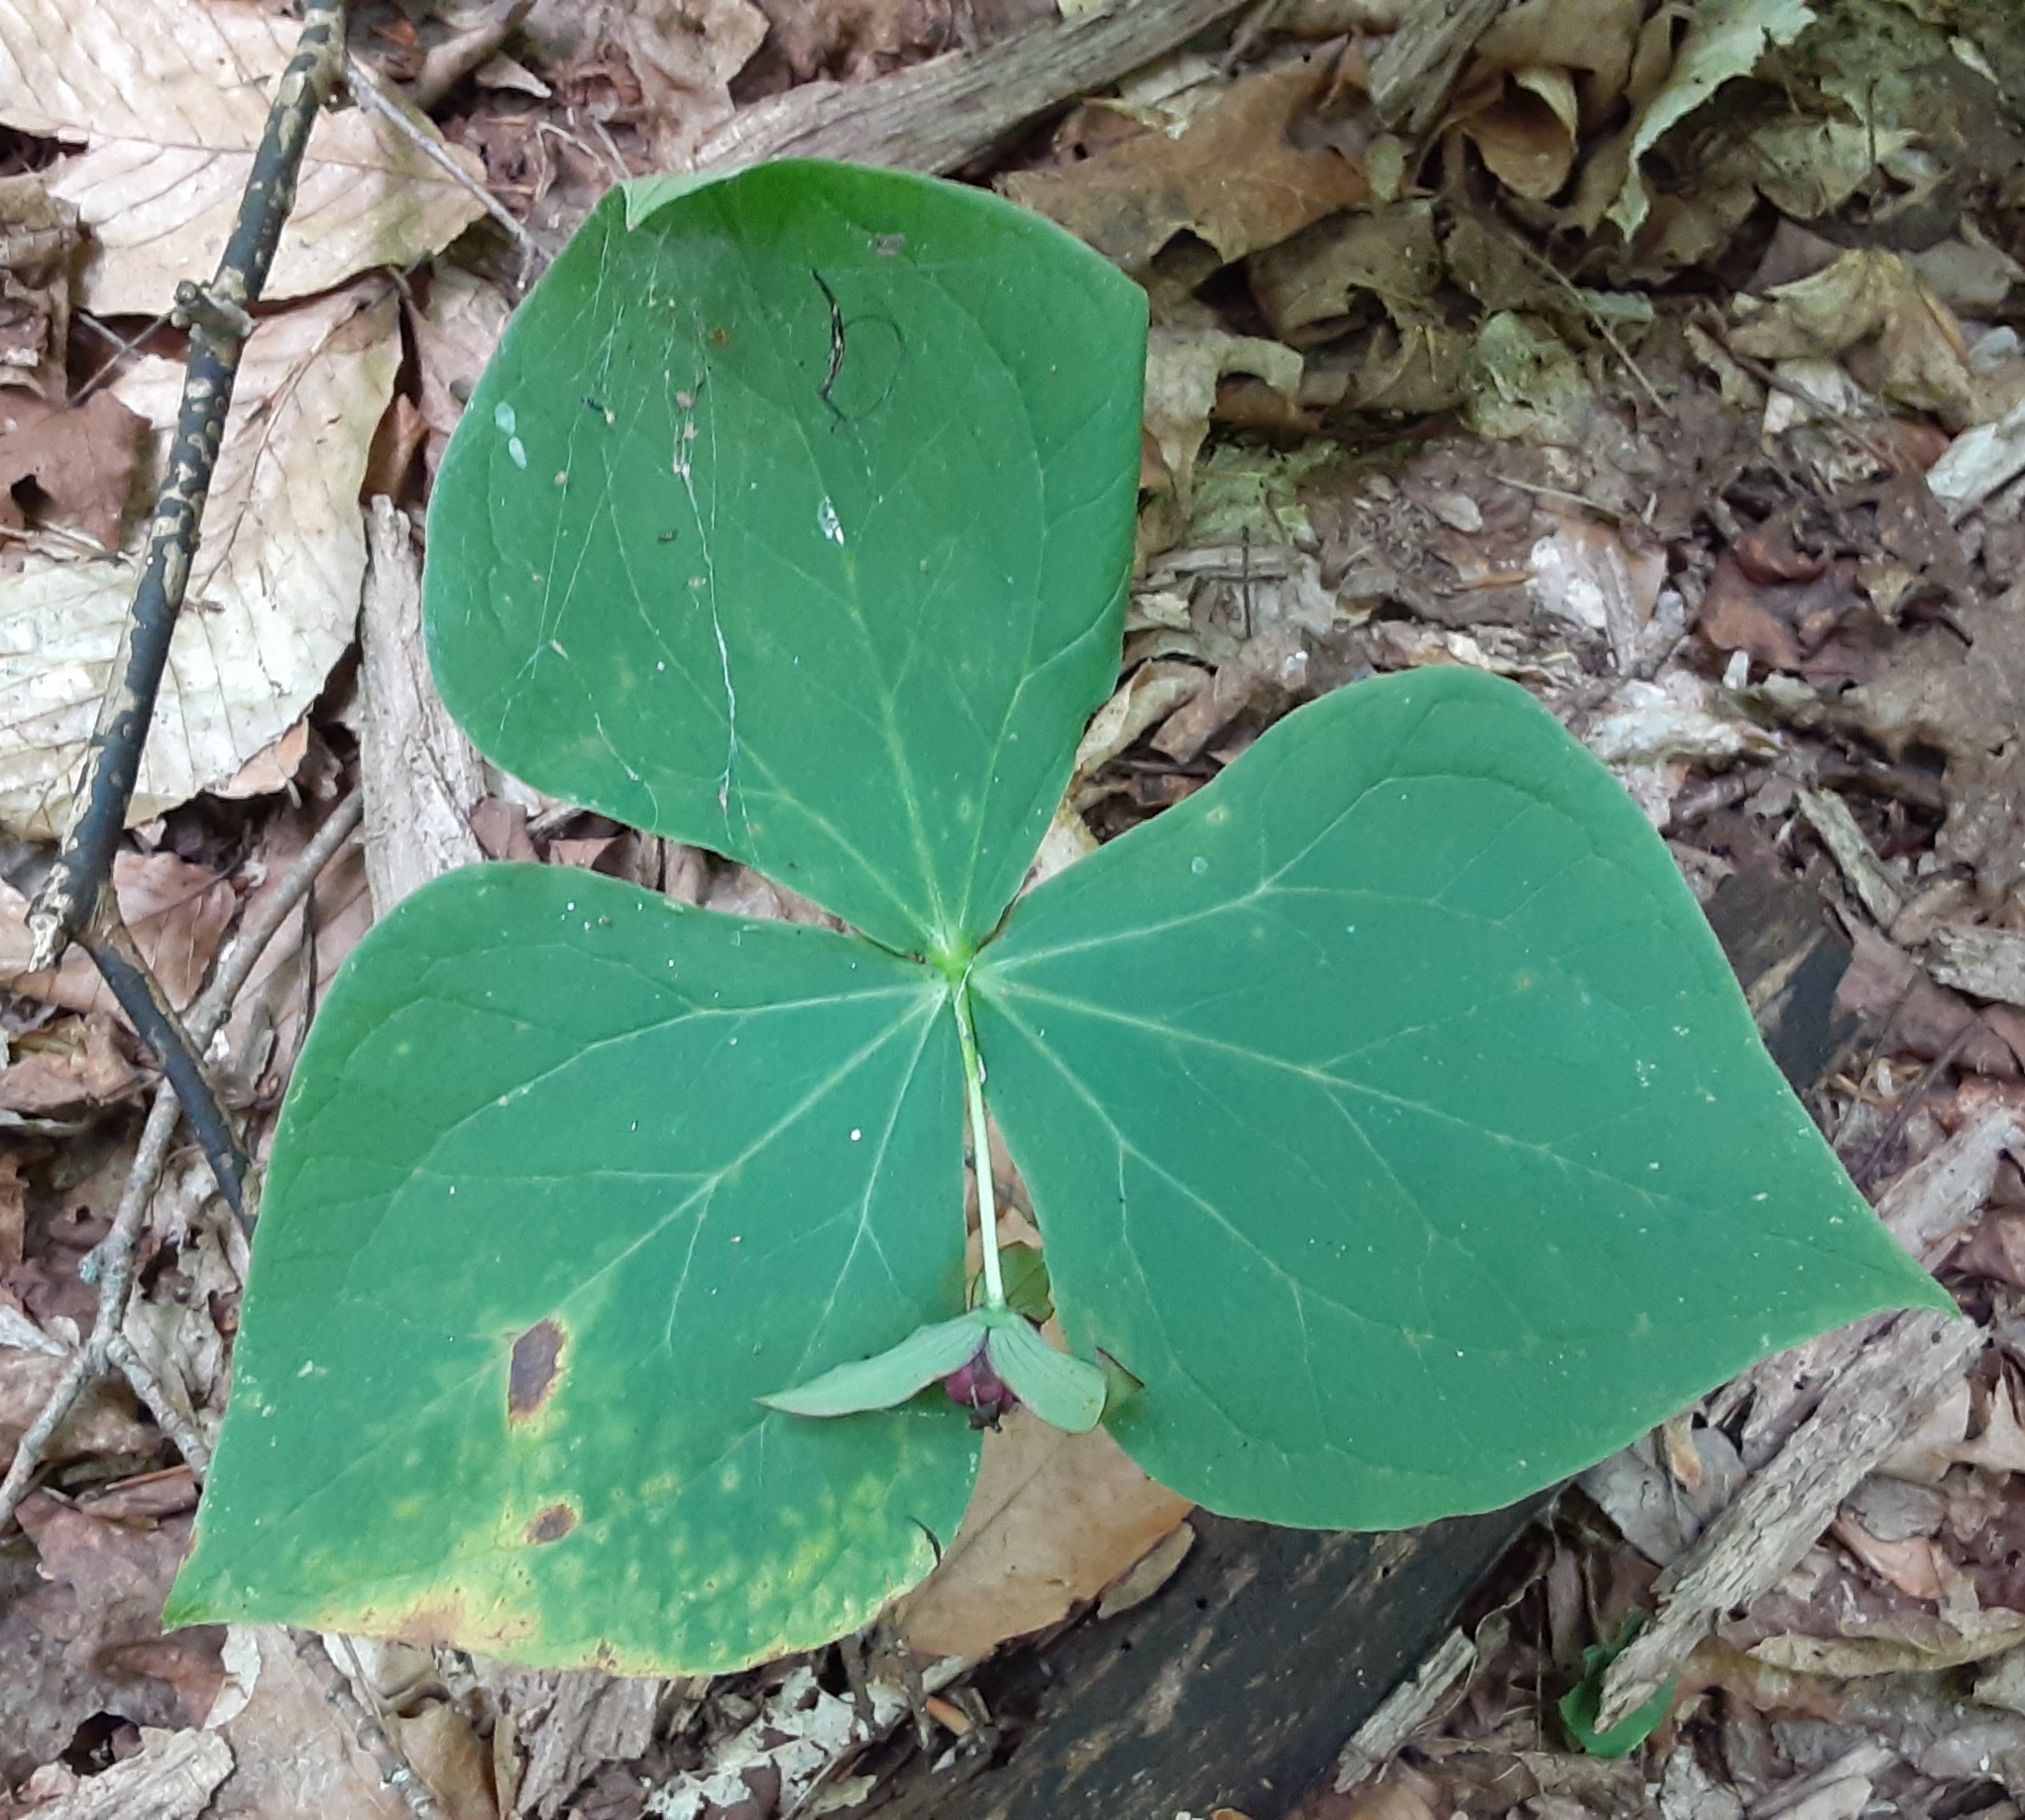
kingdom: Plantae
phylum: Tracheophyta
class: Liliopsida
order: Liliales
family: Melanthiaceae
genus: Trillium
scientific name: Trillium erectum
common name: Purple trillium
